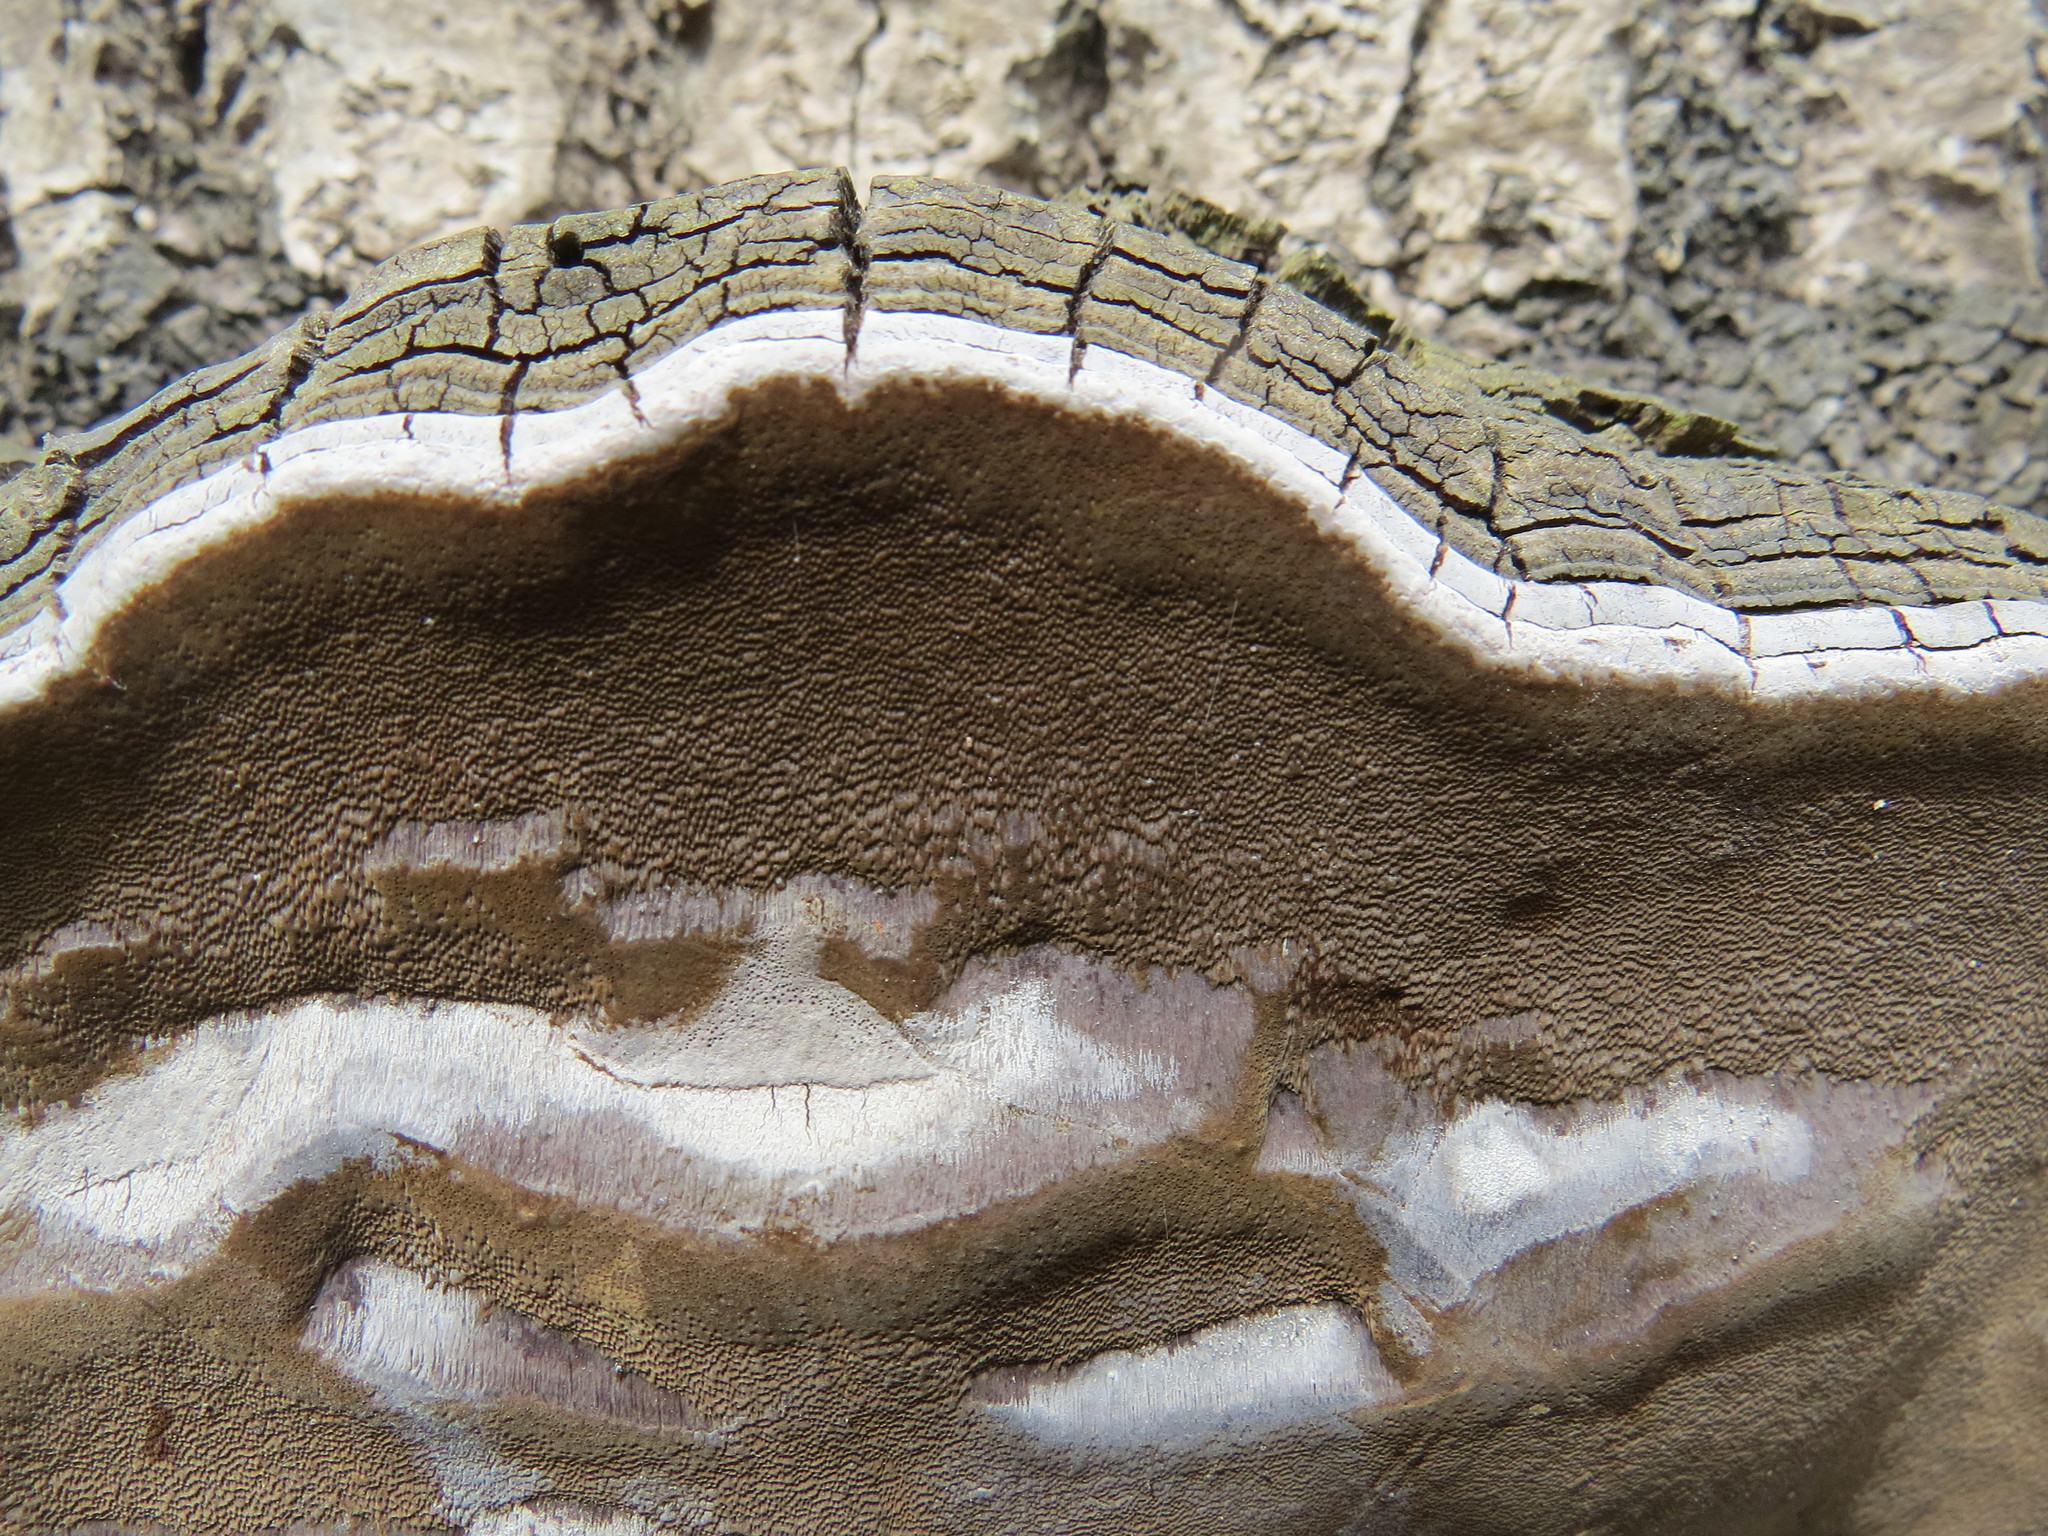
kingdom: Fungi
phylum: Basidiomycota
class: Agaricomycetes
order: Hymenochaetales
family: Hymenochaetaceae
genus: Phellinus
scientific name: Phellinus tremulae
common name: Aspen bracket
